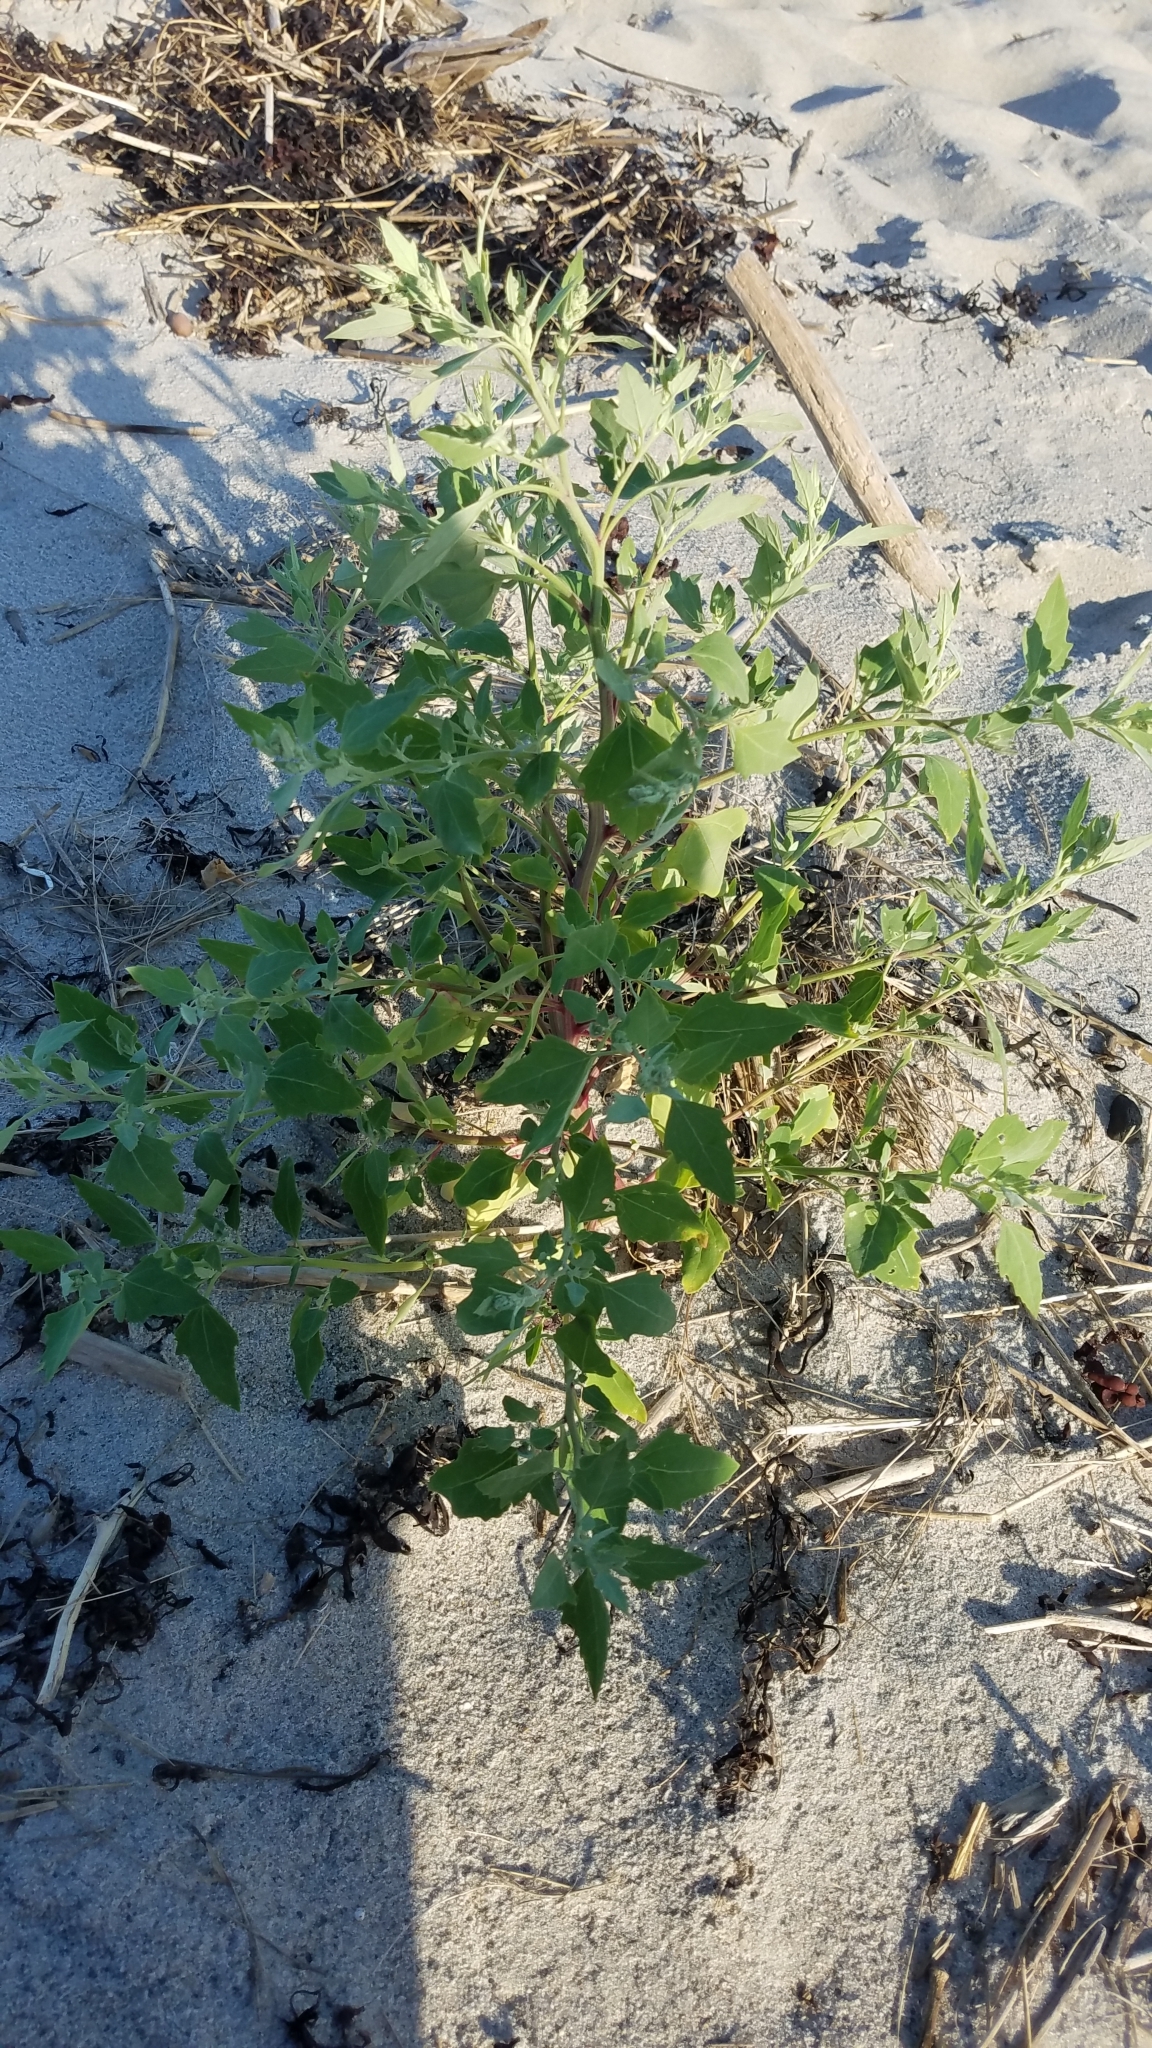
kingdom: Plantae
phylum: Tracheophyta
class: Magnoliopsida
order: Caryophyllales
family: Amaranthaceae
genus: Chenopodium
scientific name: Chenopodium album
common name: Fat-hen
